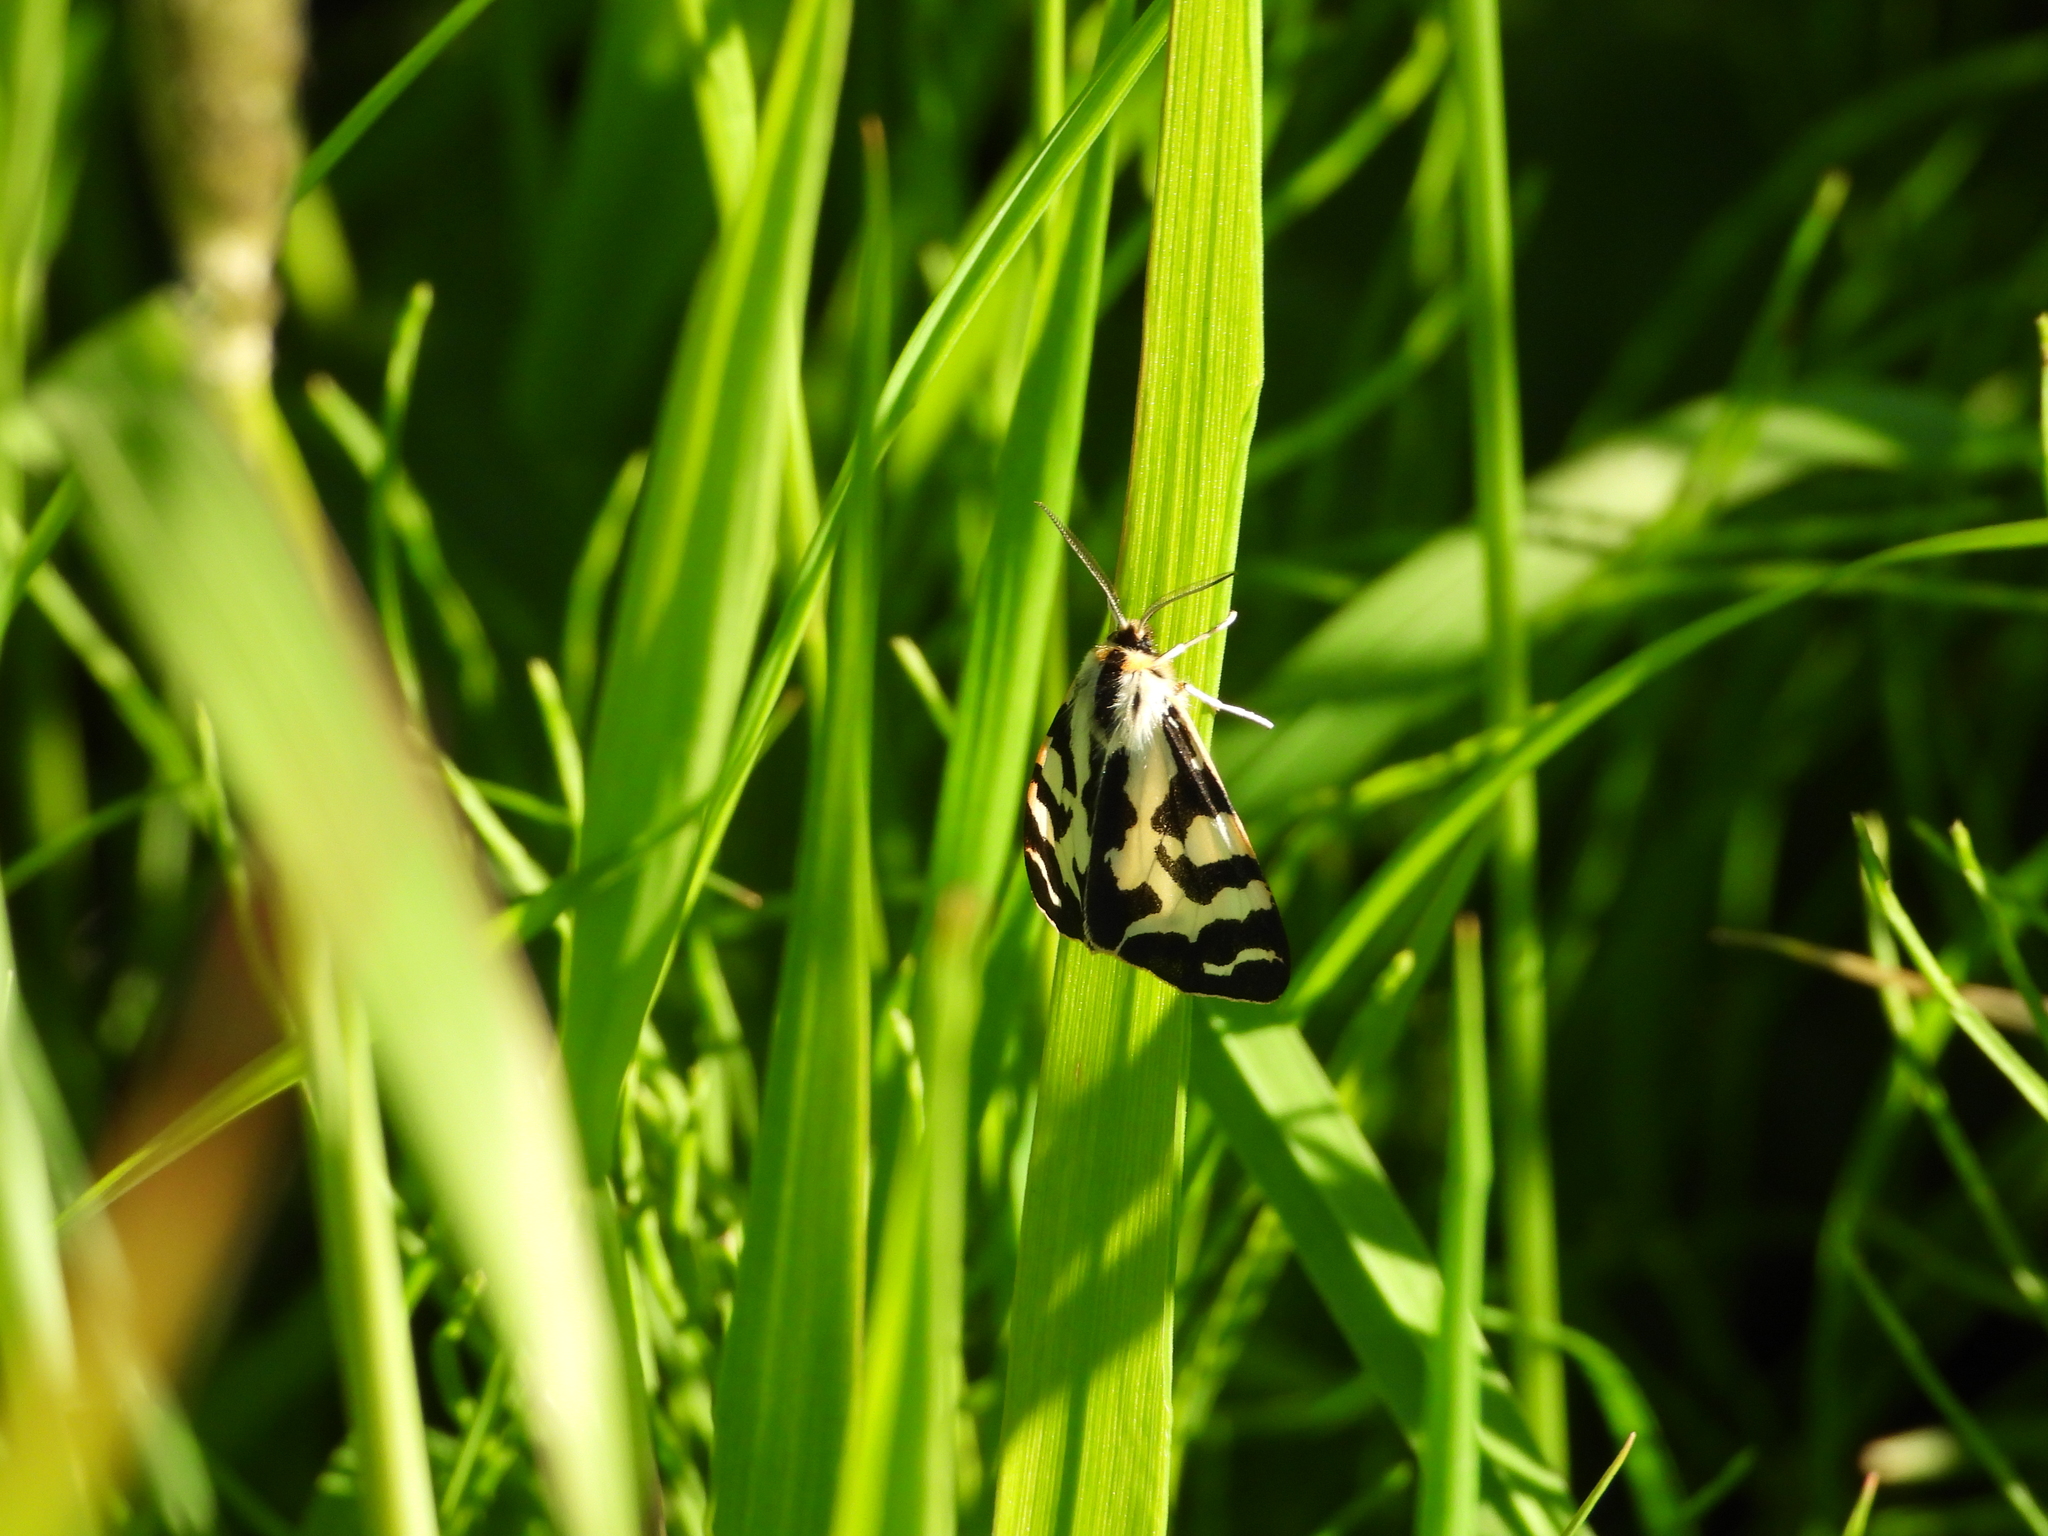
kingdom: Animalia
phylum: Arthropoda
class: Insecta
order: Lepidoptera
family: Erebidae
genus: Parasemia
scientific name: Parasemia plantaginis
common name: Wood tiger
